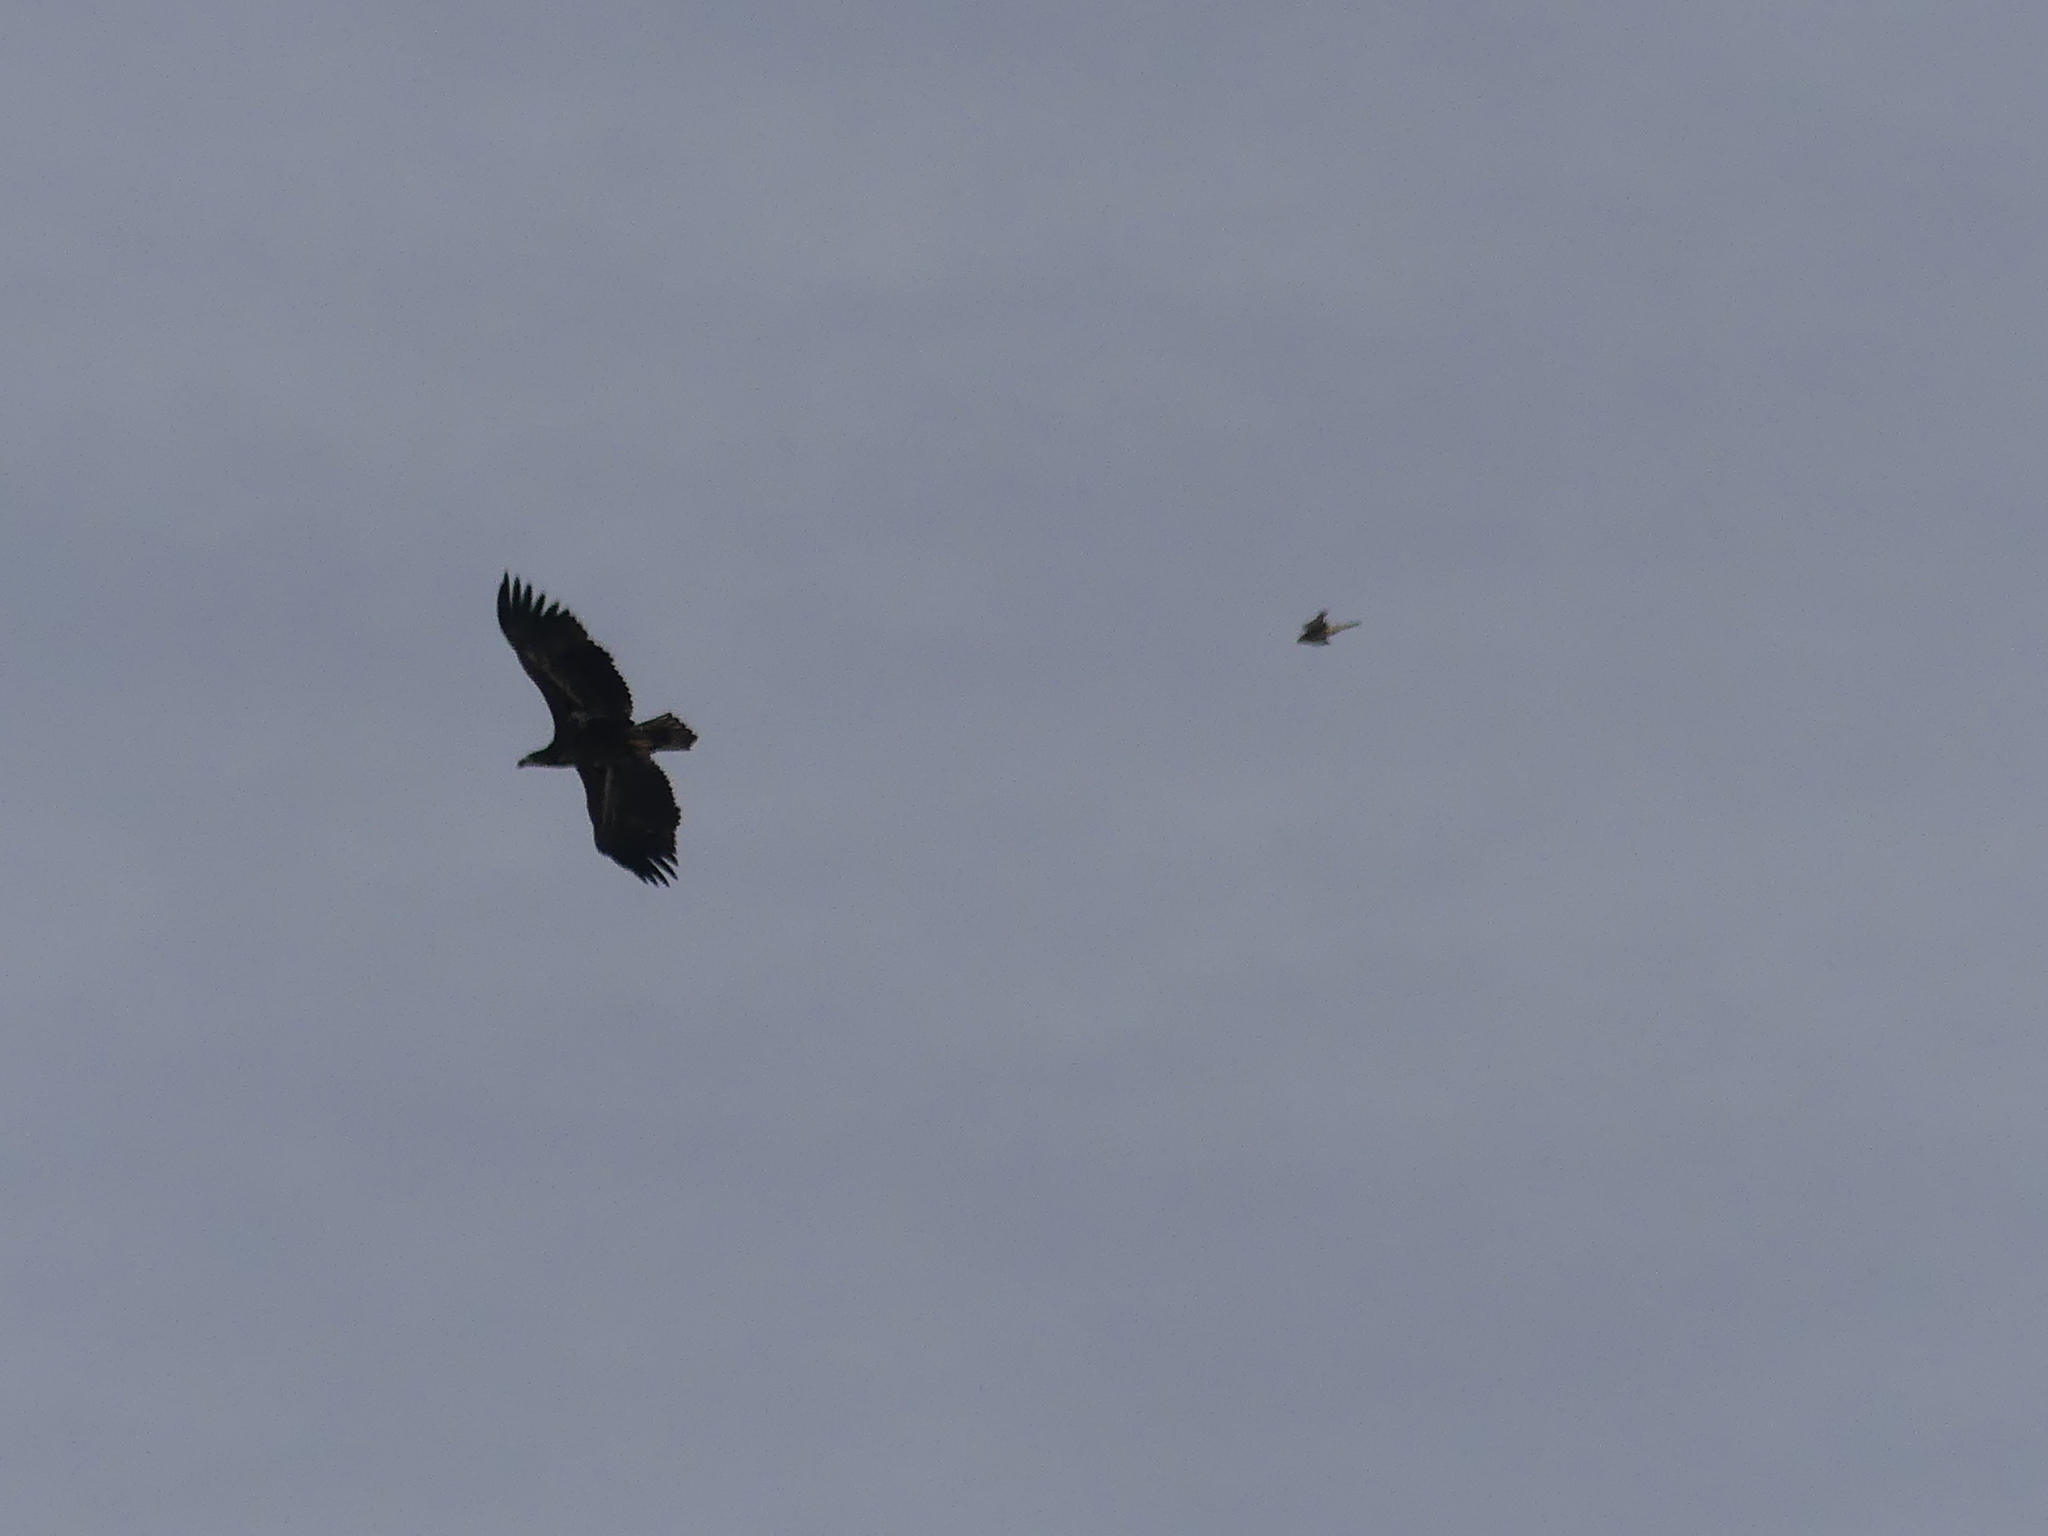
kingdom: Animalia
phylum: Chordata
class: Aves
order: Accipitriformes
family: Accipitridae
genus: Haliaeetus
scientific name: Haliaeetus albicilla
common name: White-tailed eagle
